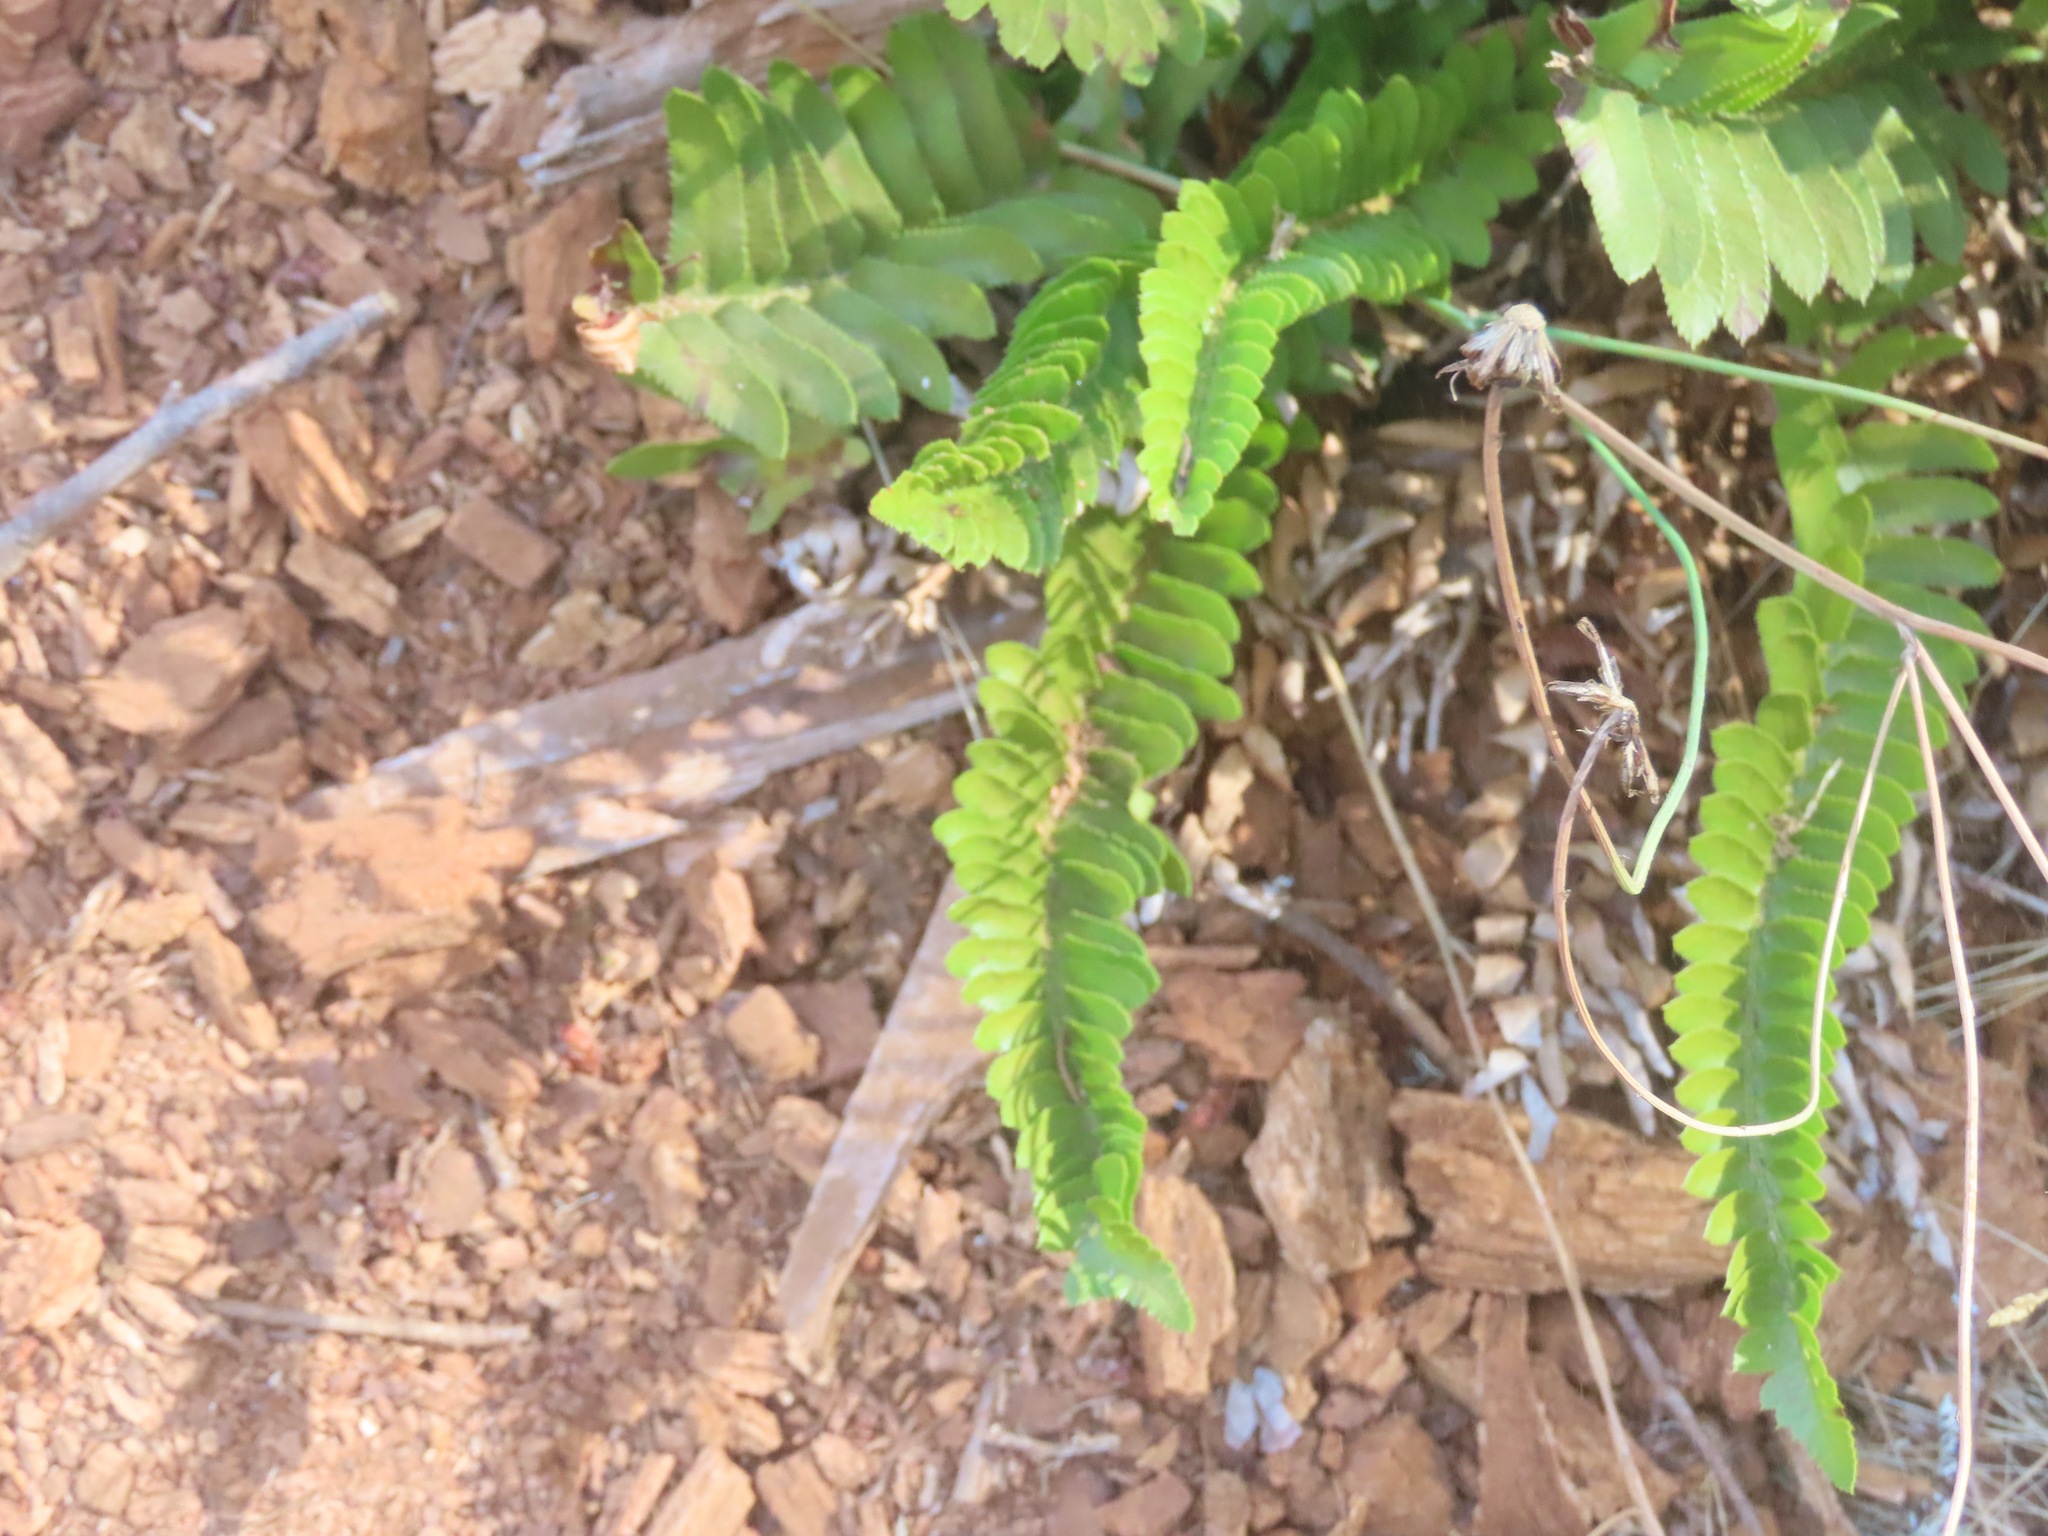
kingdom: Plantae
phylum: Tracheophyta
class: Polypodiopsida
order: Polypodiales
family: Dryopteridaceae
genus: Polystichum
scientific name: Polystichum imbricans
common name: Dwarf western sword fern
